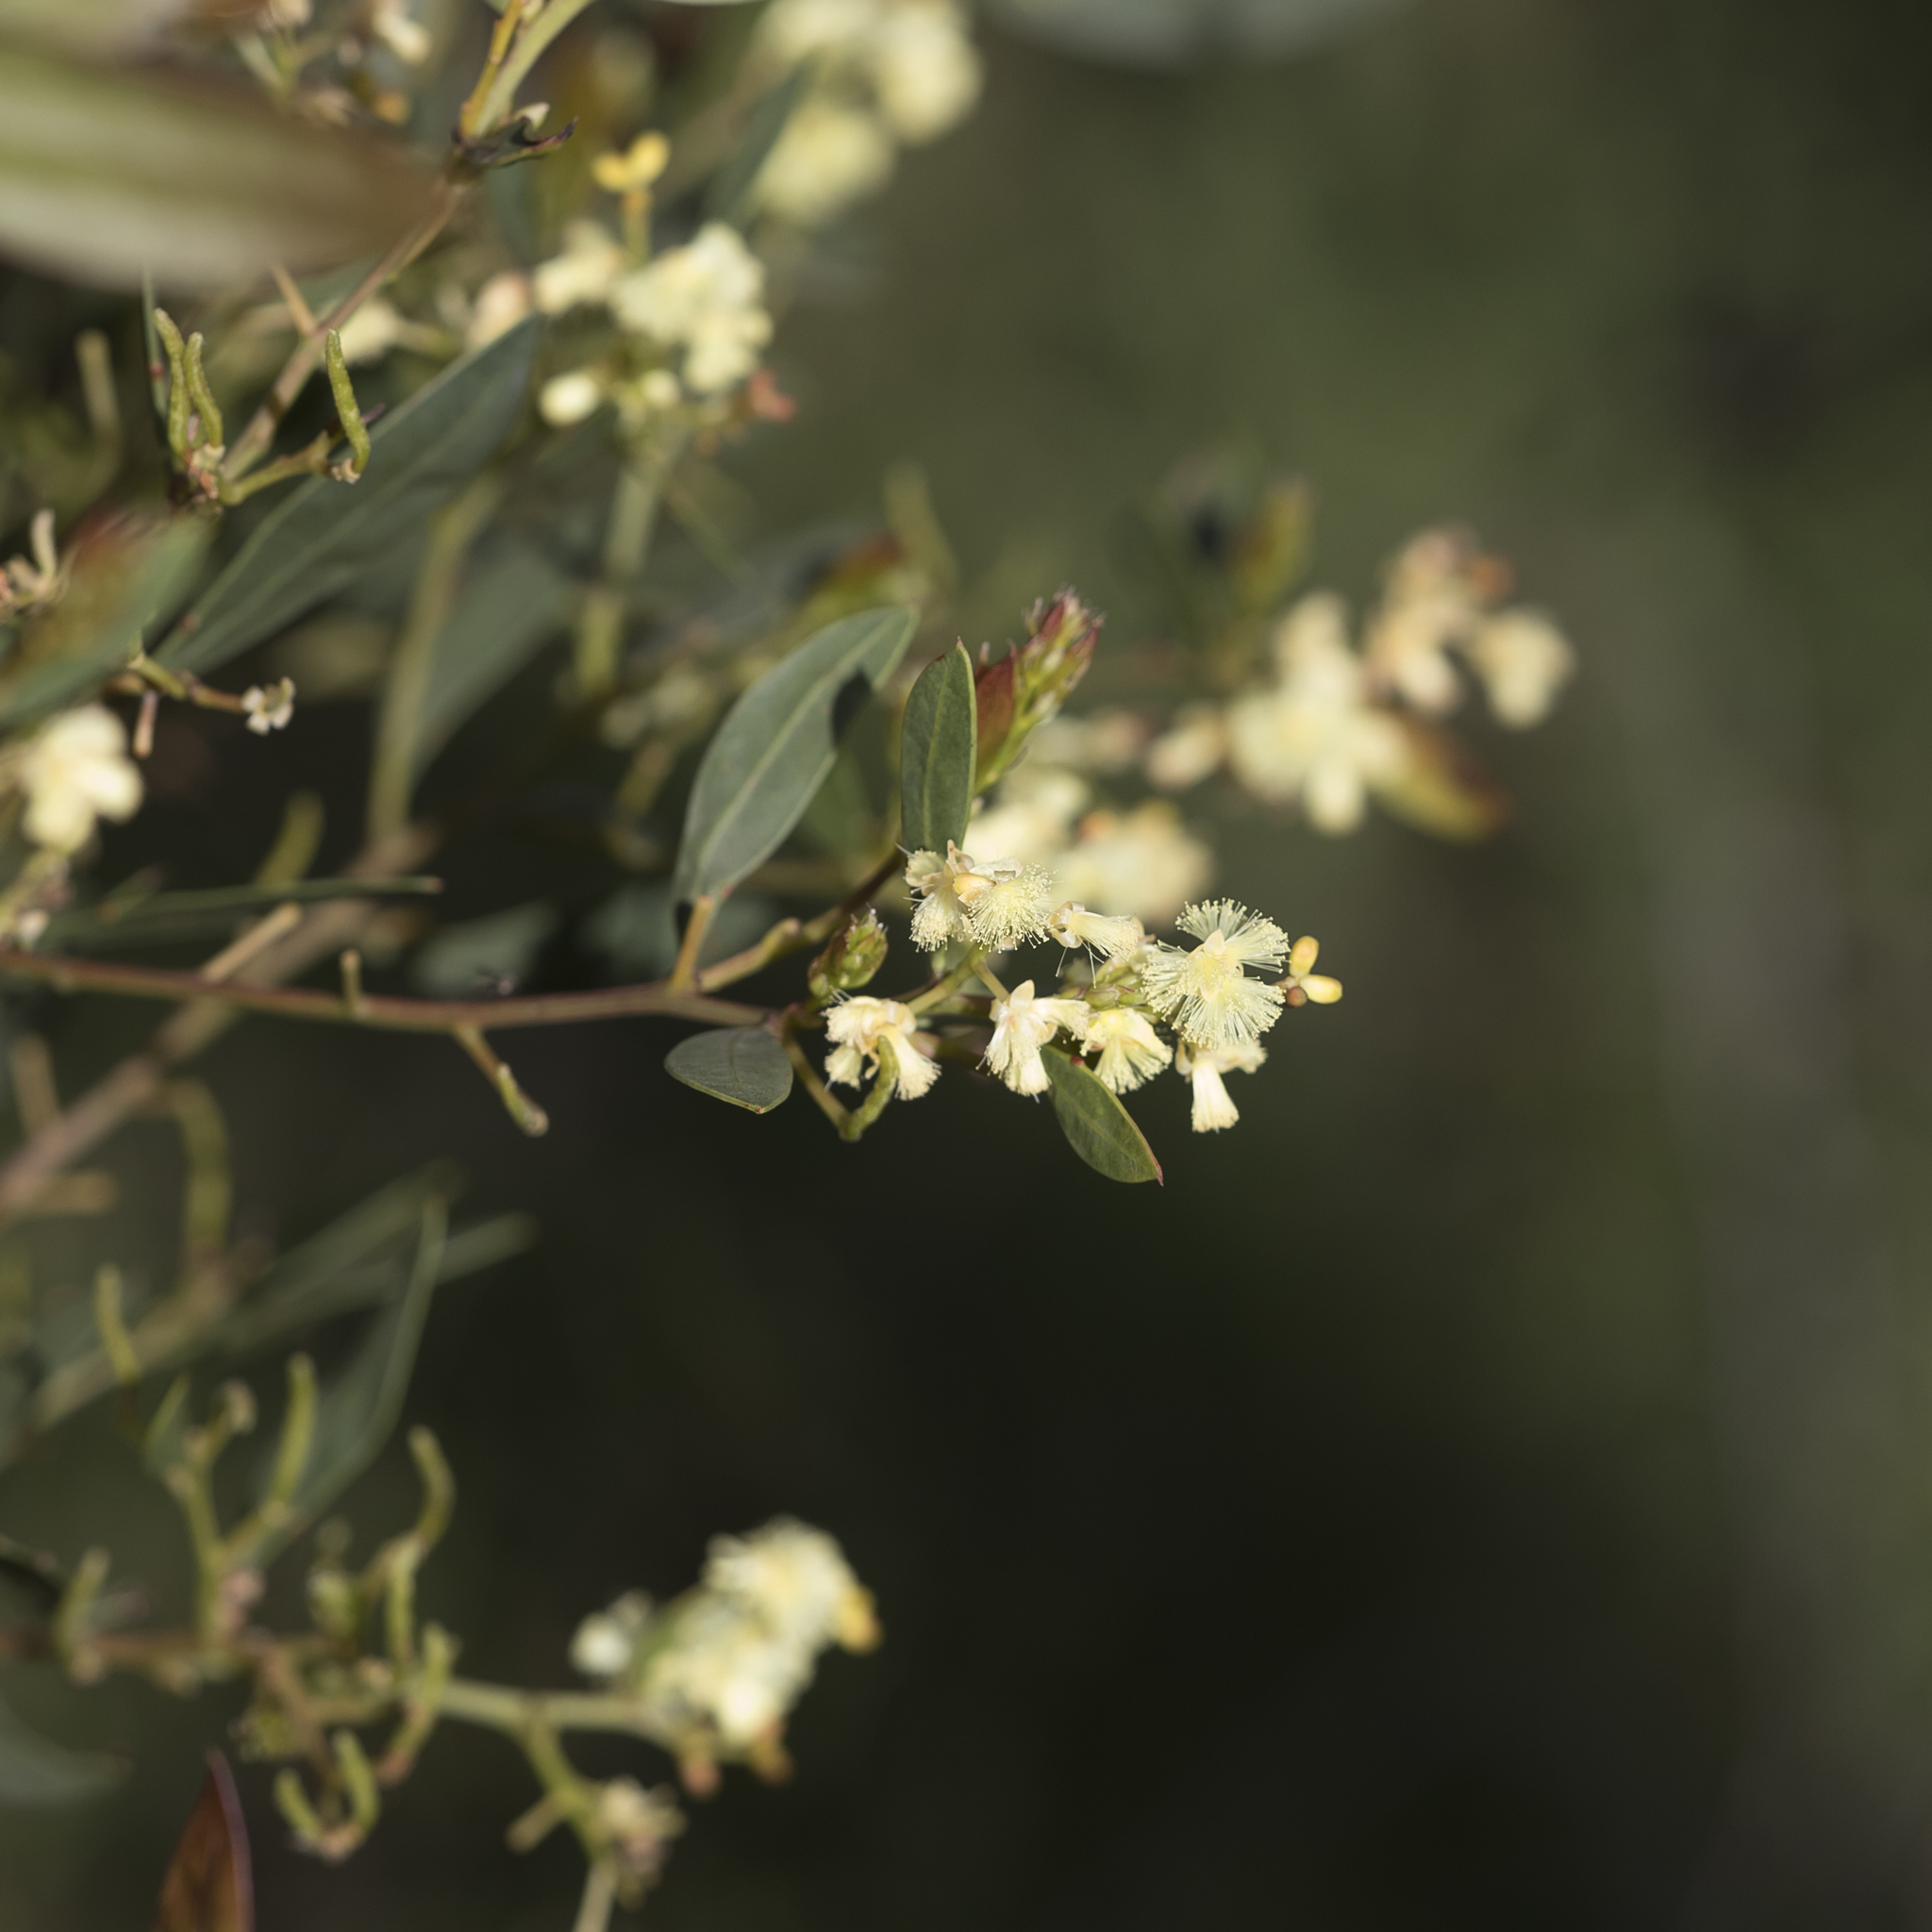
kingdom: Plantae
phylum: Tracheophyta
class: Magnoliopsida
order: Fabales
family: Fabaceae
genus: Acacia
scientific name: Acacia myrtifolia
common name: Myrtle wattle
